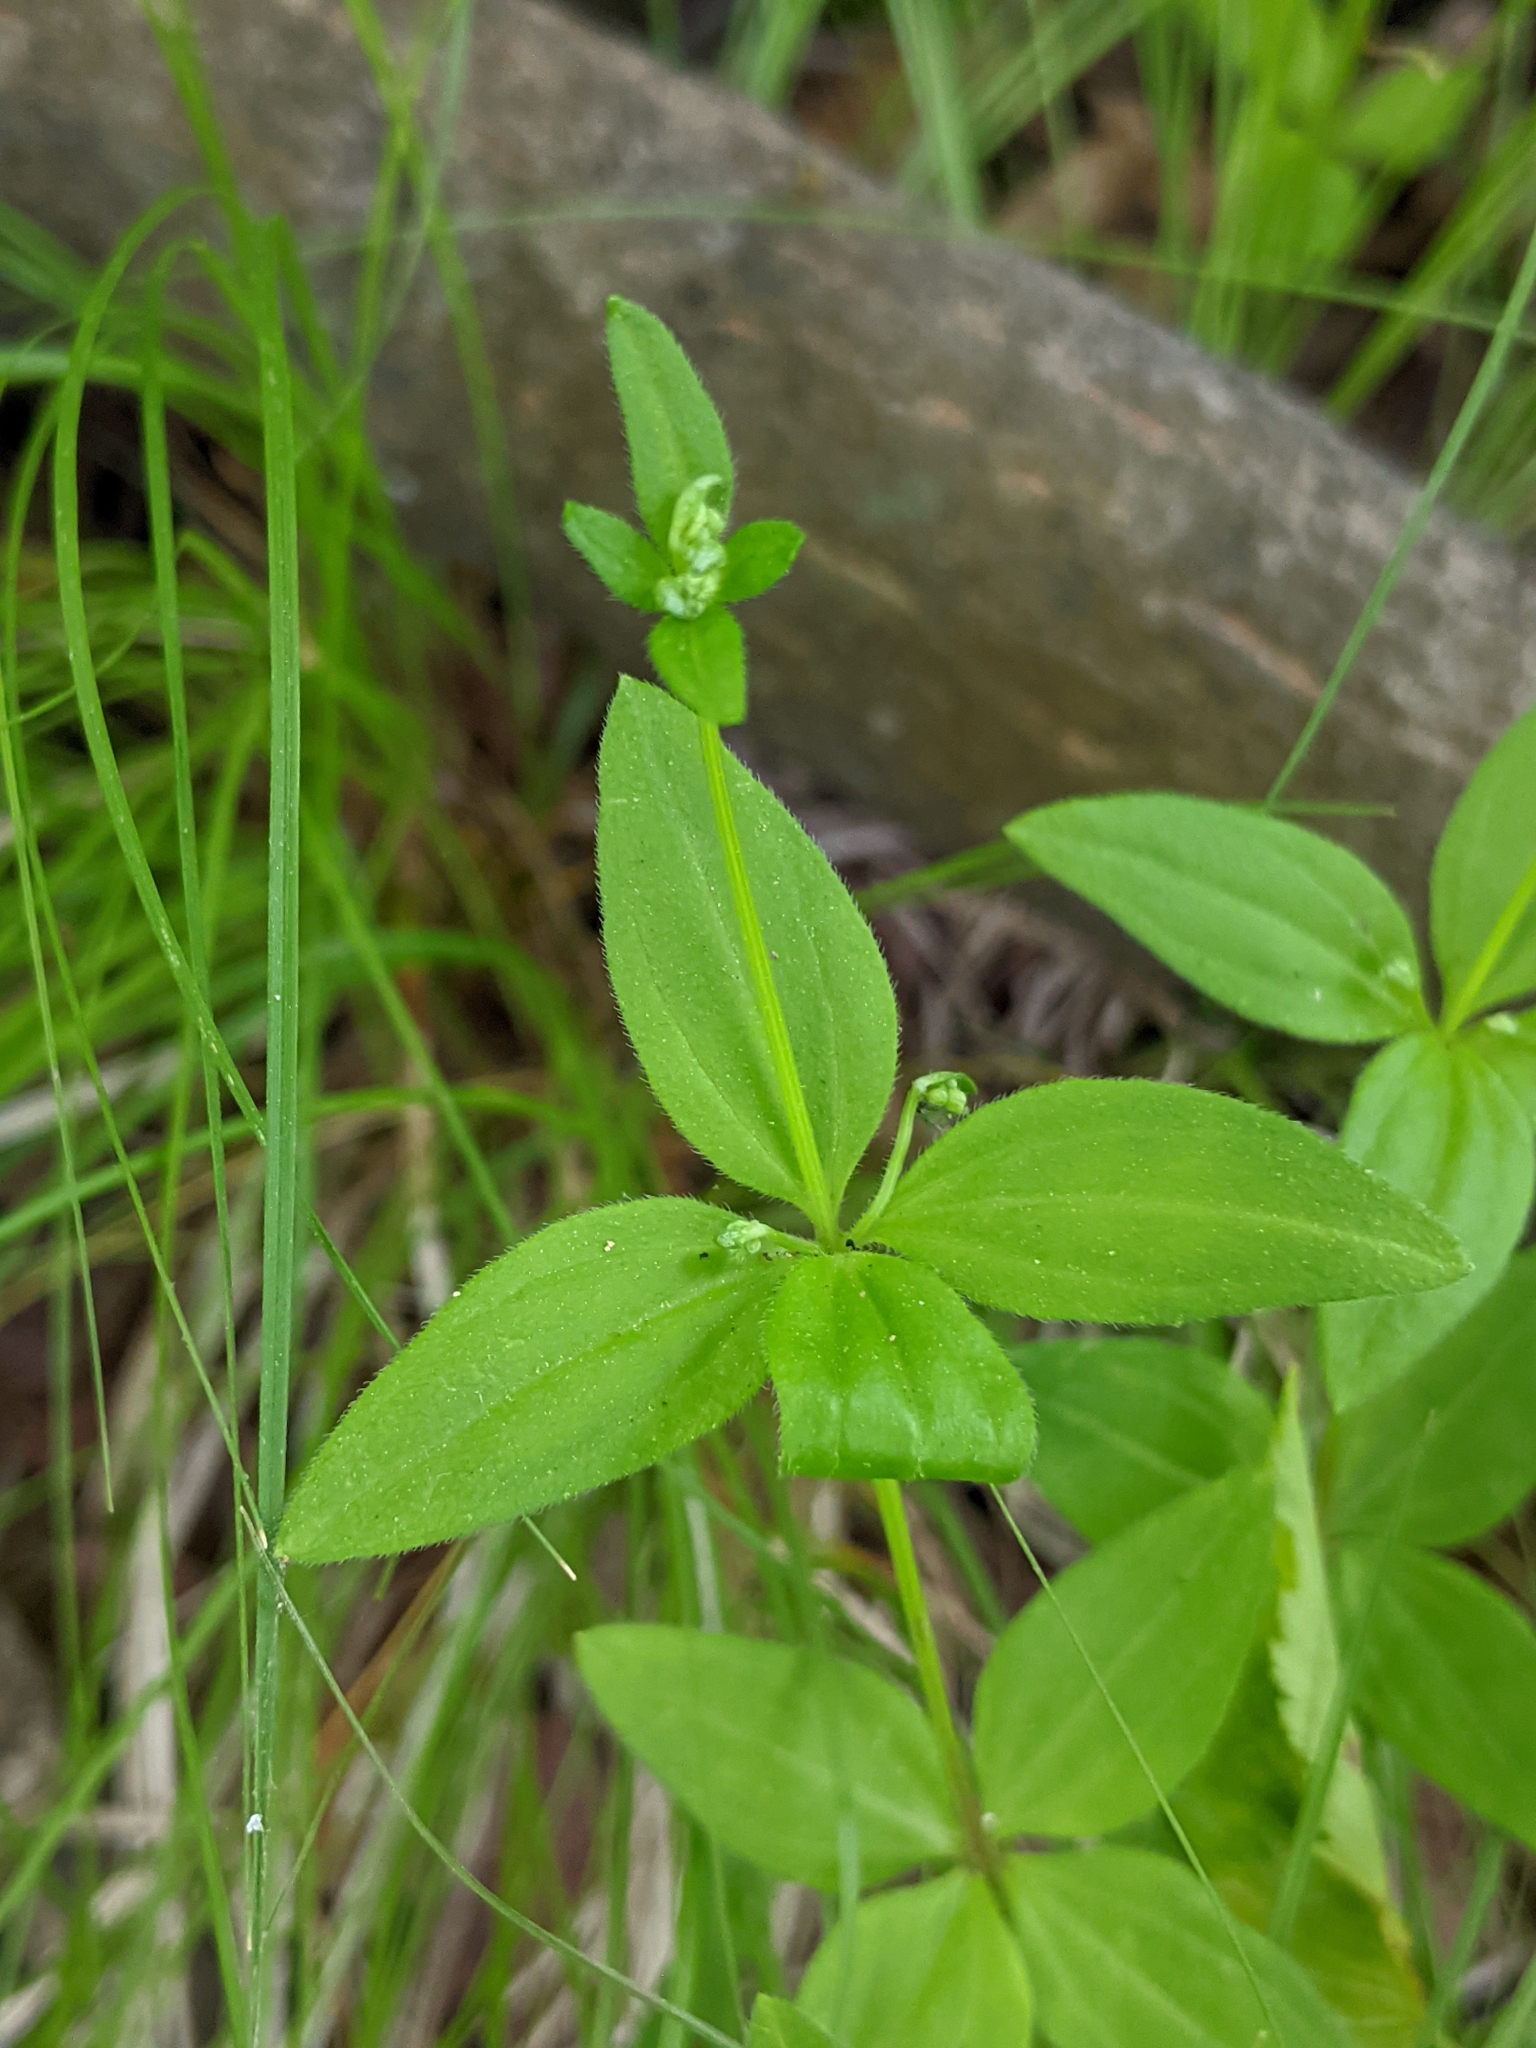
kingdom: Plantae
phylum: Tracheophyta
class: Magnoliopsida
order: Gentianales
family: Rubiaceae
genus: Galium
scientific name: Galium circaezans
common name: Forest bedstraw
